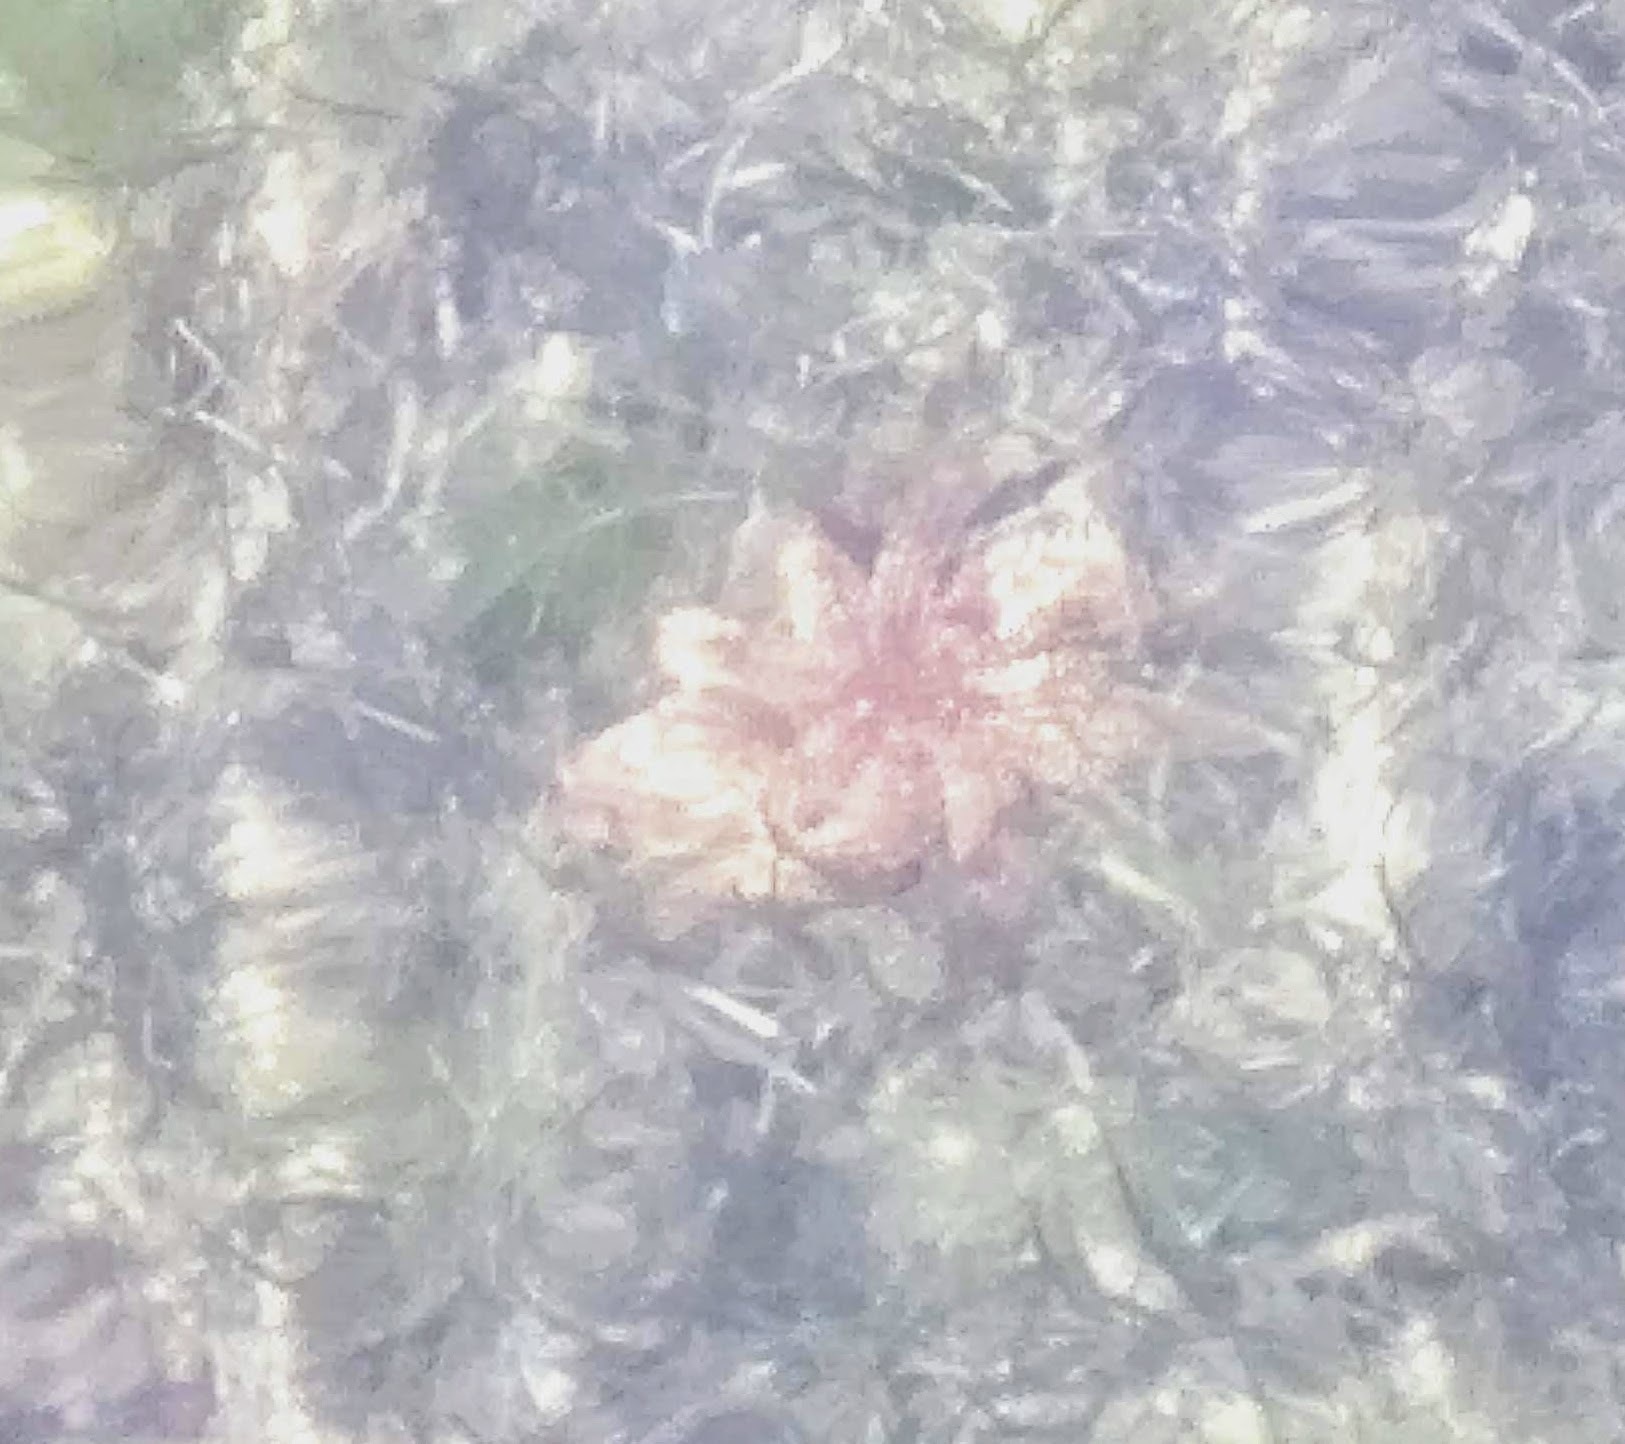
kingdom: Animalia
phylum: Echinodermata
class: Asteroidea
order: Forcipulatida
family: Asteriidae
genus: Coscinasterias
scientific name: Coscinasterias muricata
